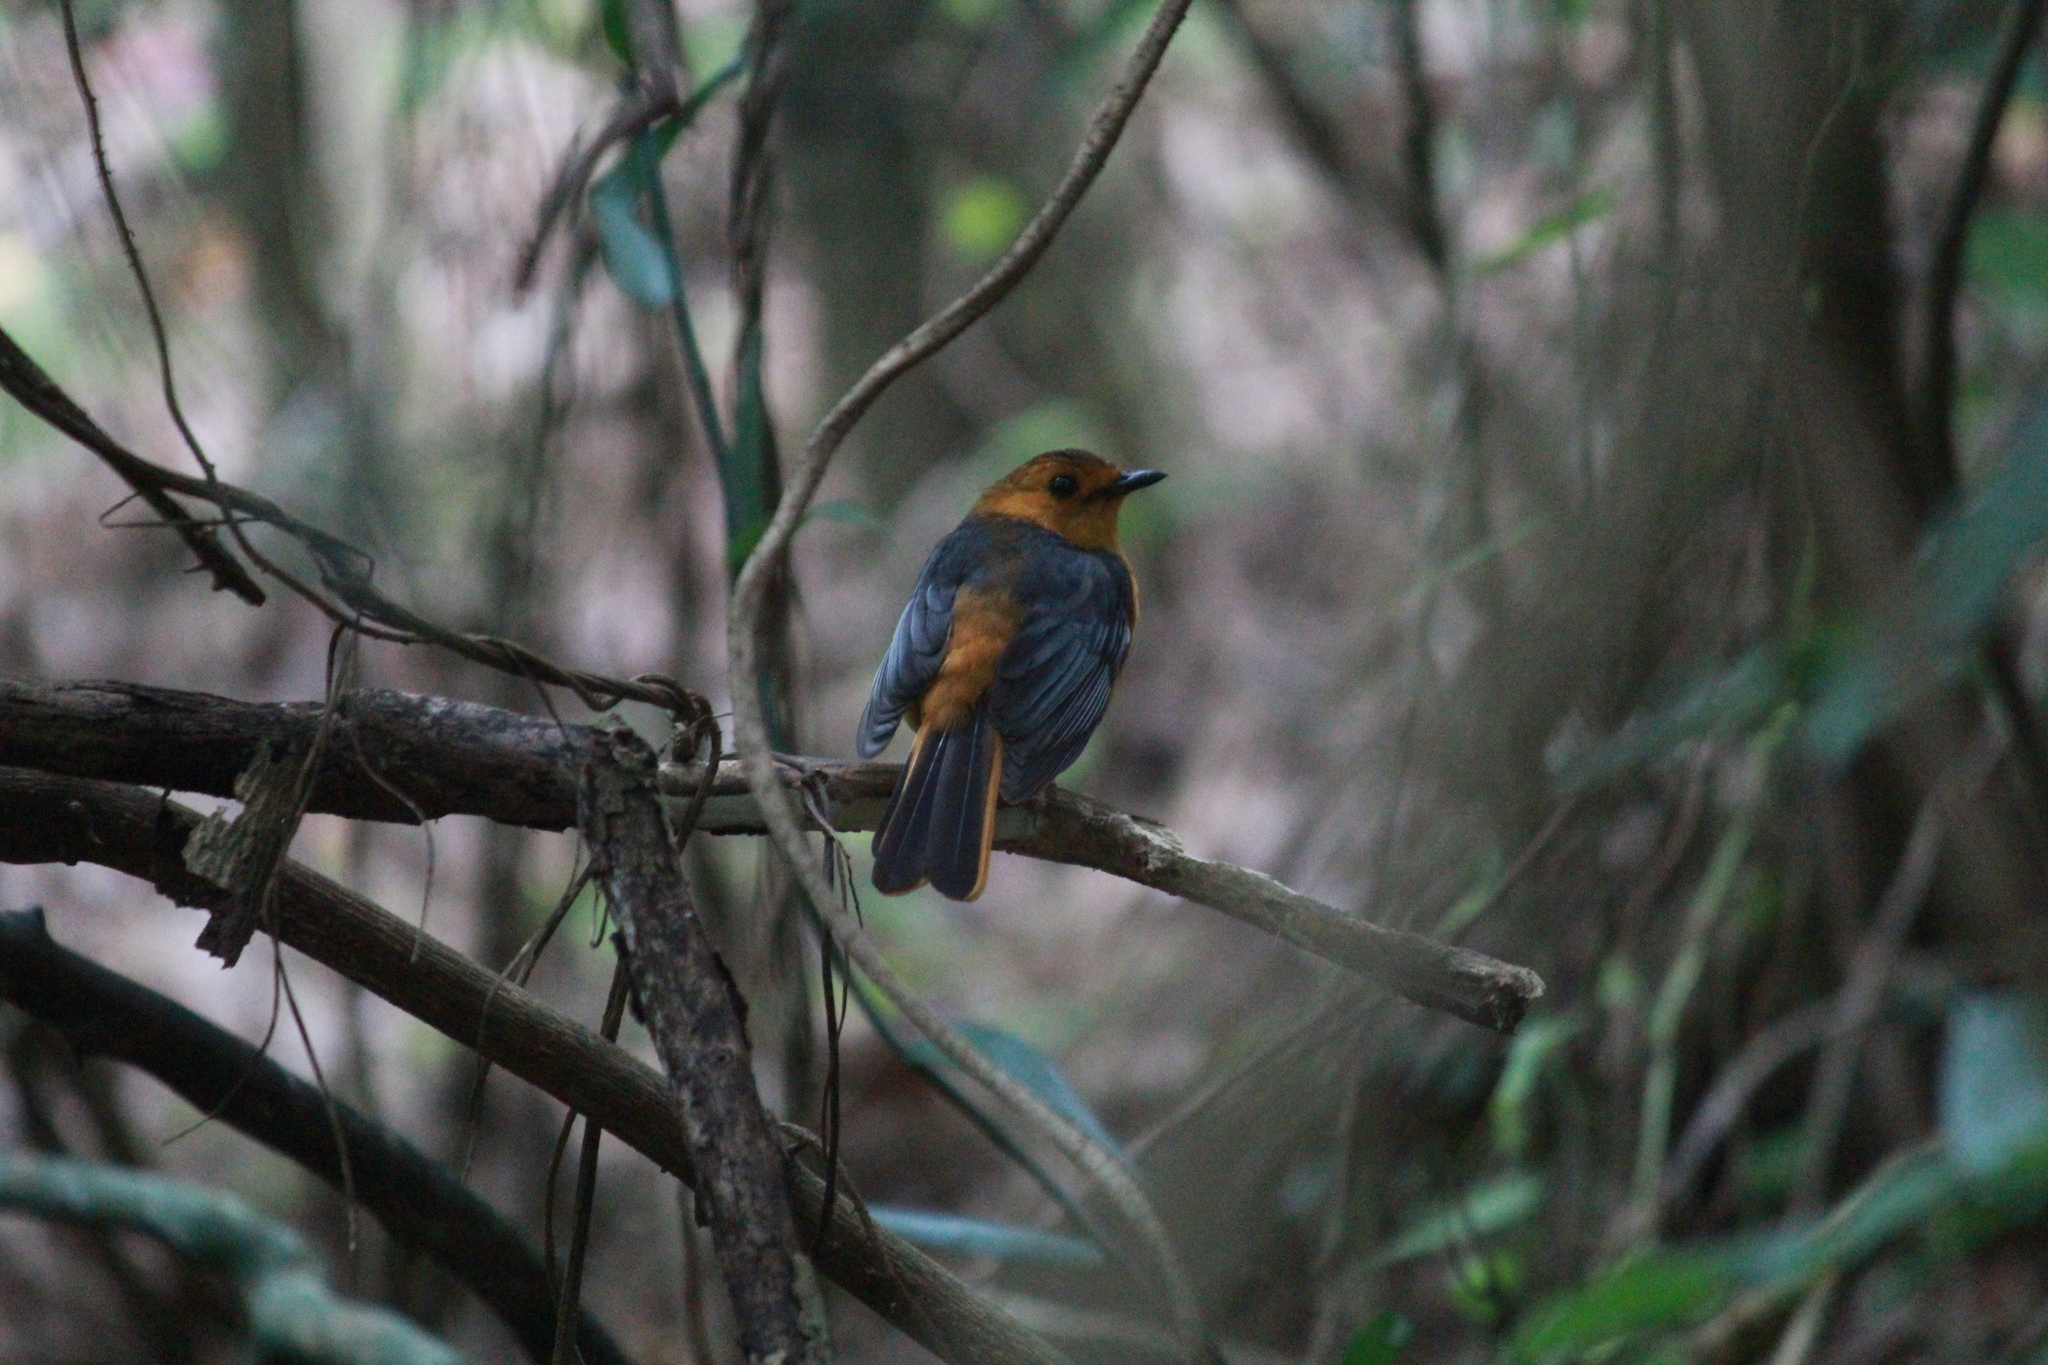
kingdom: Animalia
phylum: Chordata
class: Aves
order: Passeriformes
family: Muscicapidae
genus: Cossypha
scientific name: Cossypha natalensis
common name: Red-capped robin-chat
